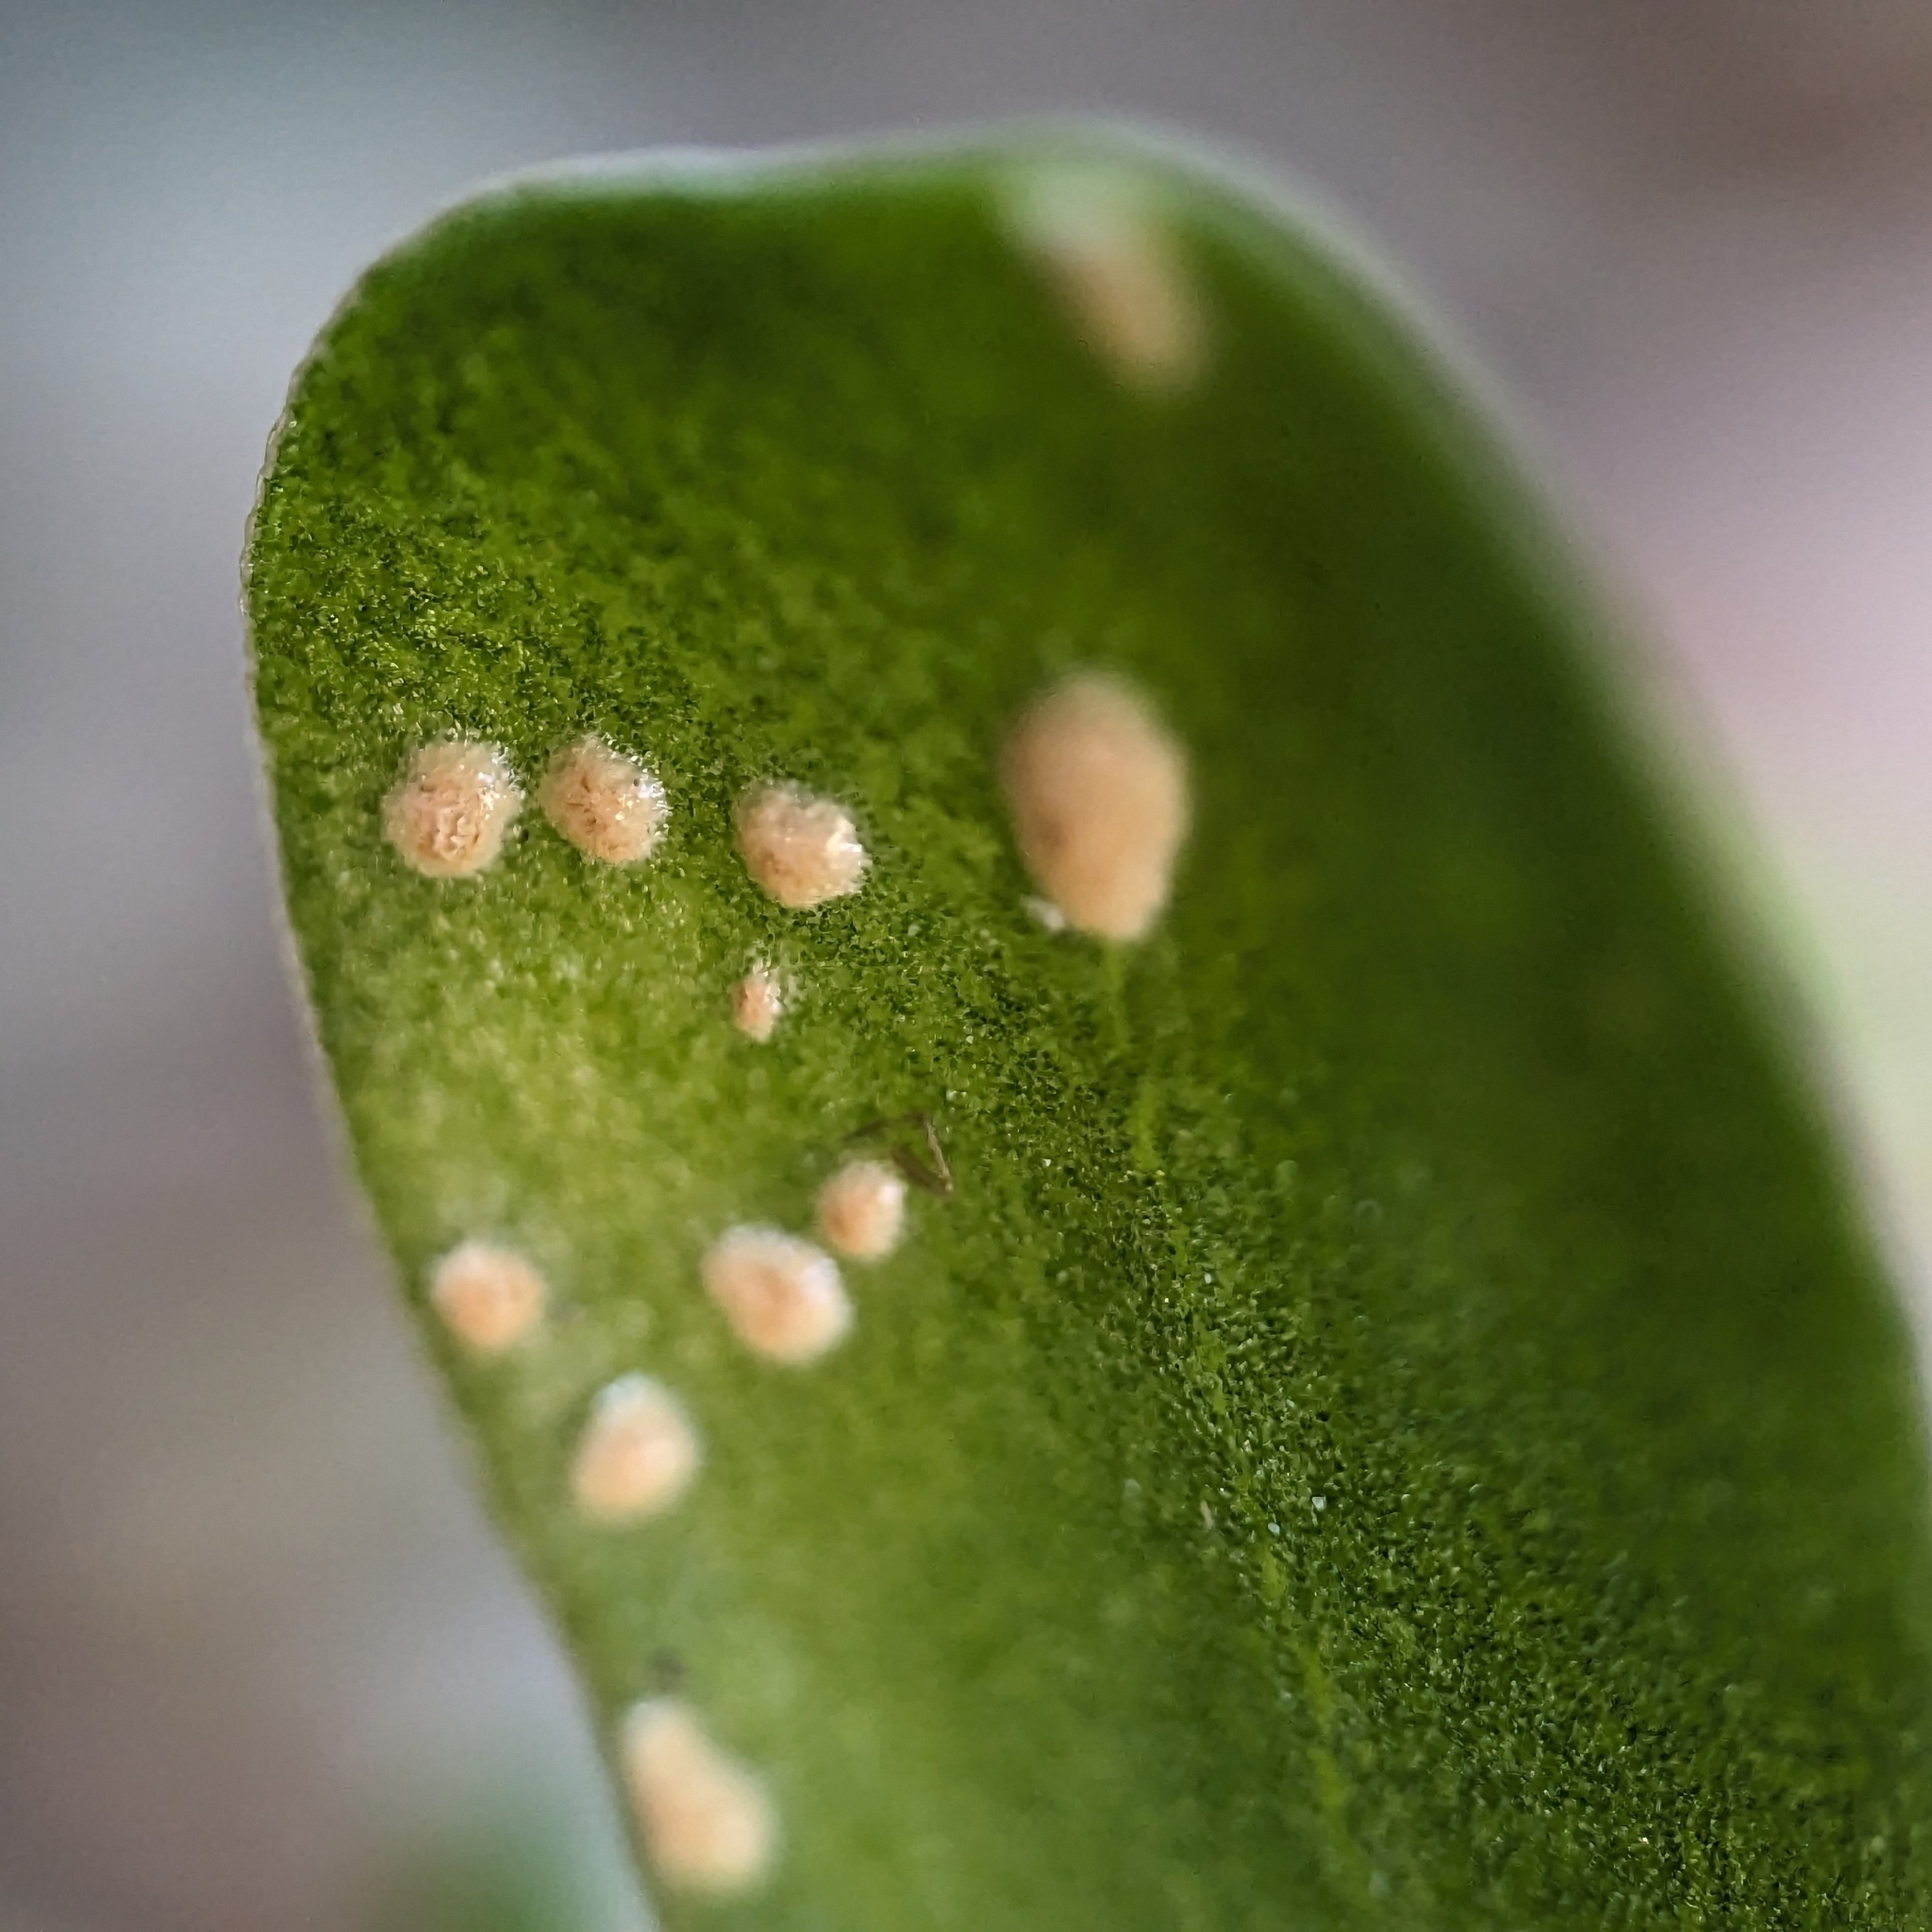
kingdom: Chromista
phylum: Oomycota
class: Peronosporea
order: Albuginales
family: Albuginaceae
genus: Wilsoniana
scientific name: Wilsoniana portulacae
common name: Purslane white rust
